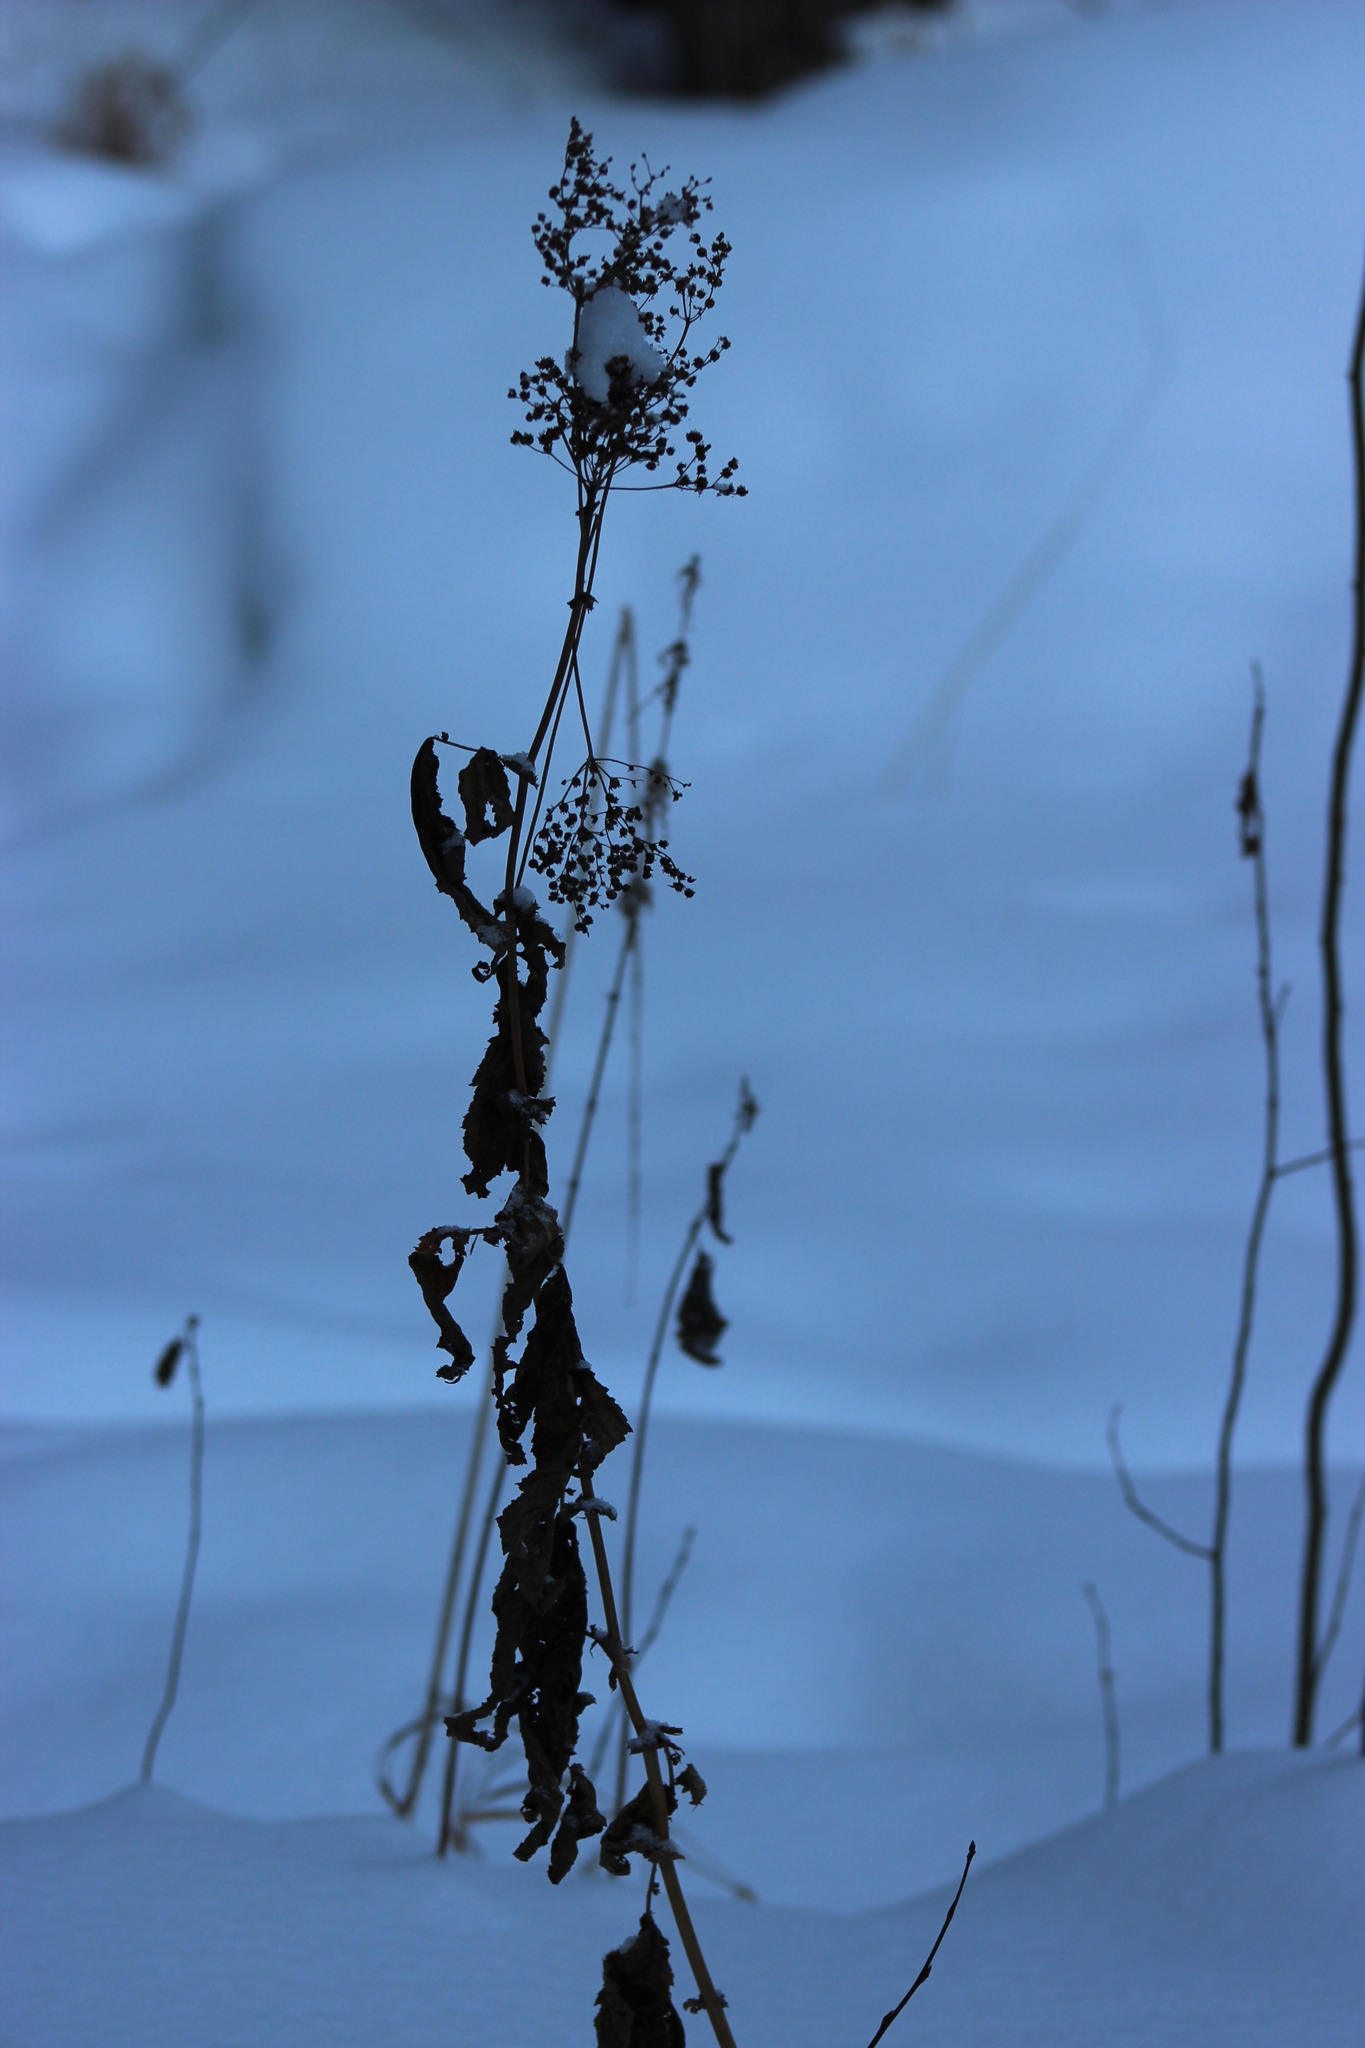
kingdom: Plantae
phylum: Tracheophyta
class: Magnoliopsida
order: Rosales
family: Rosaceae
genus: Filipendula
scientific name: Filipendula ulmaria
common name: Meadowsweet
